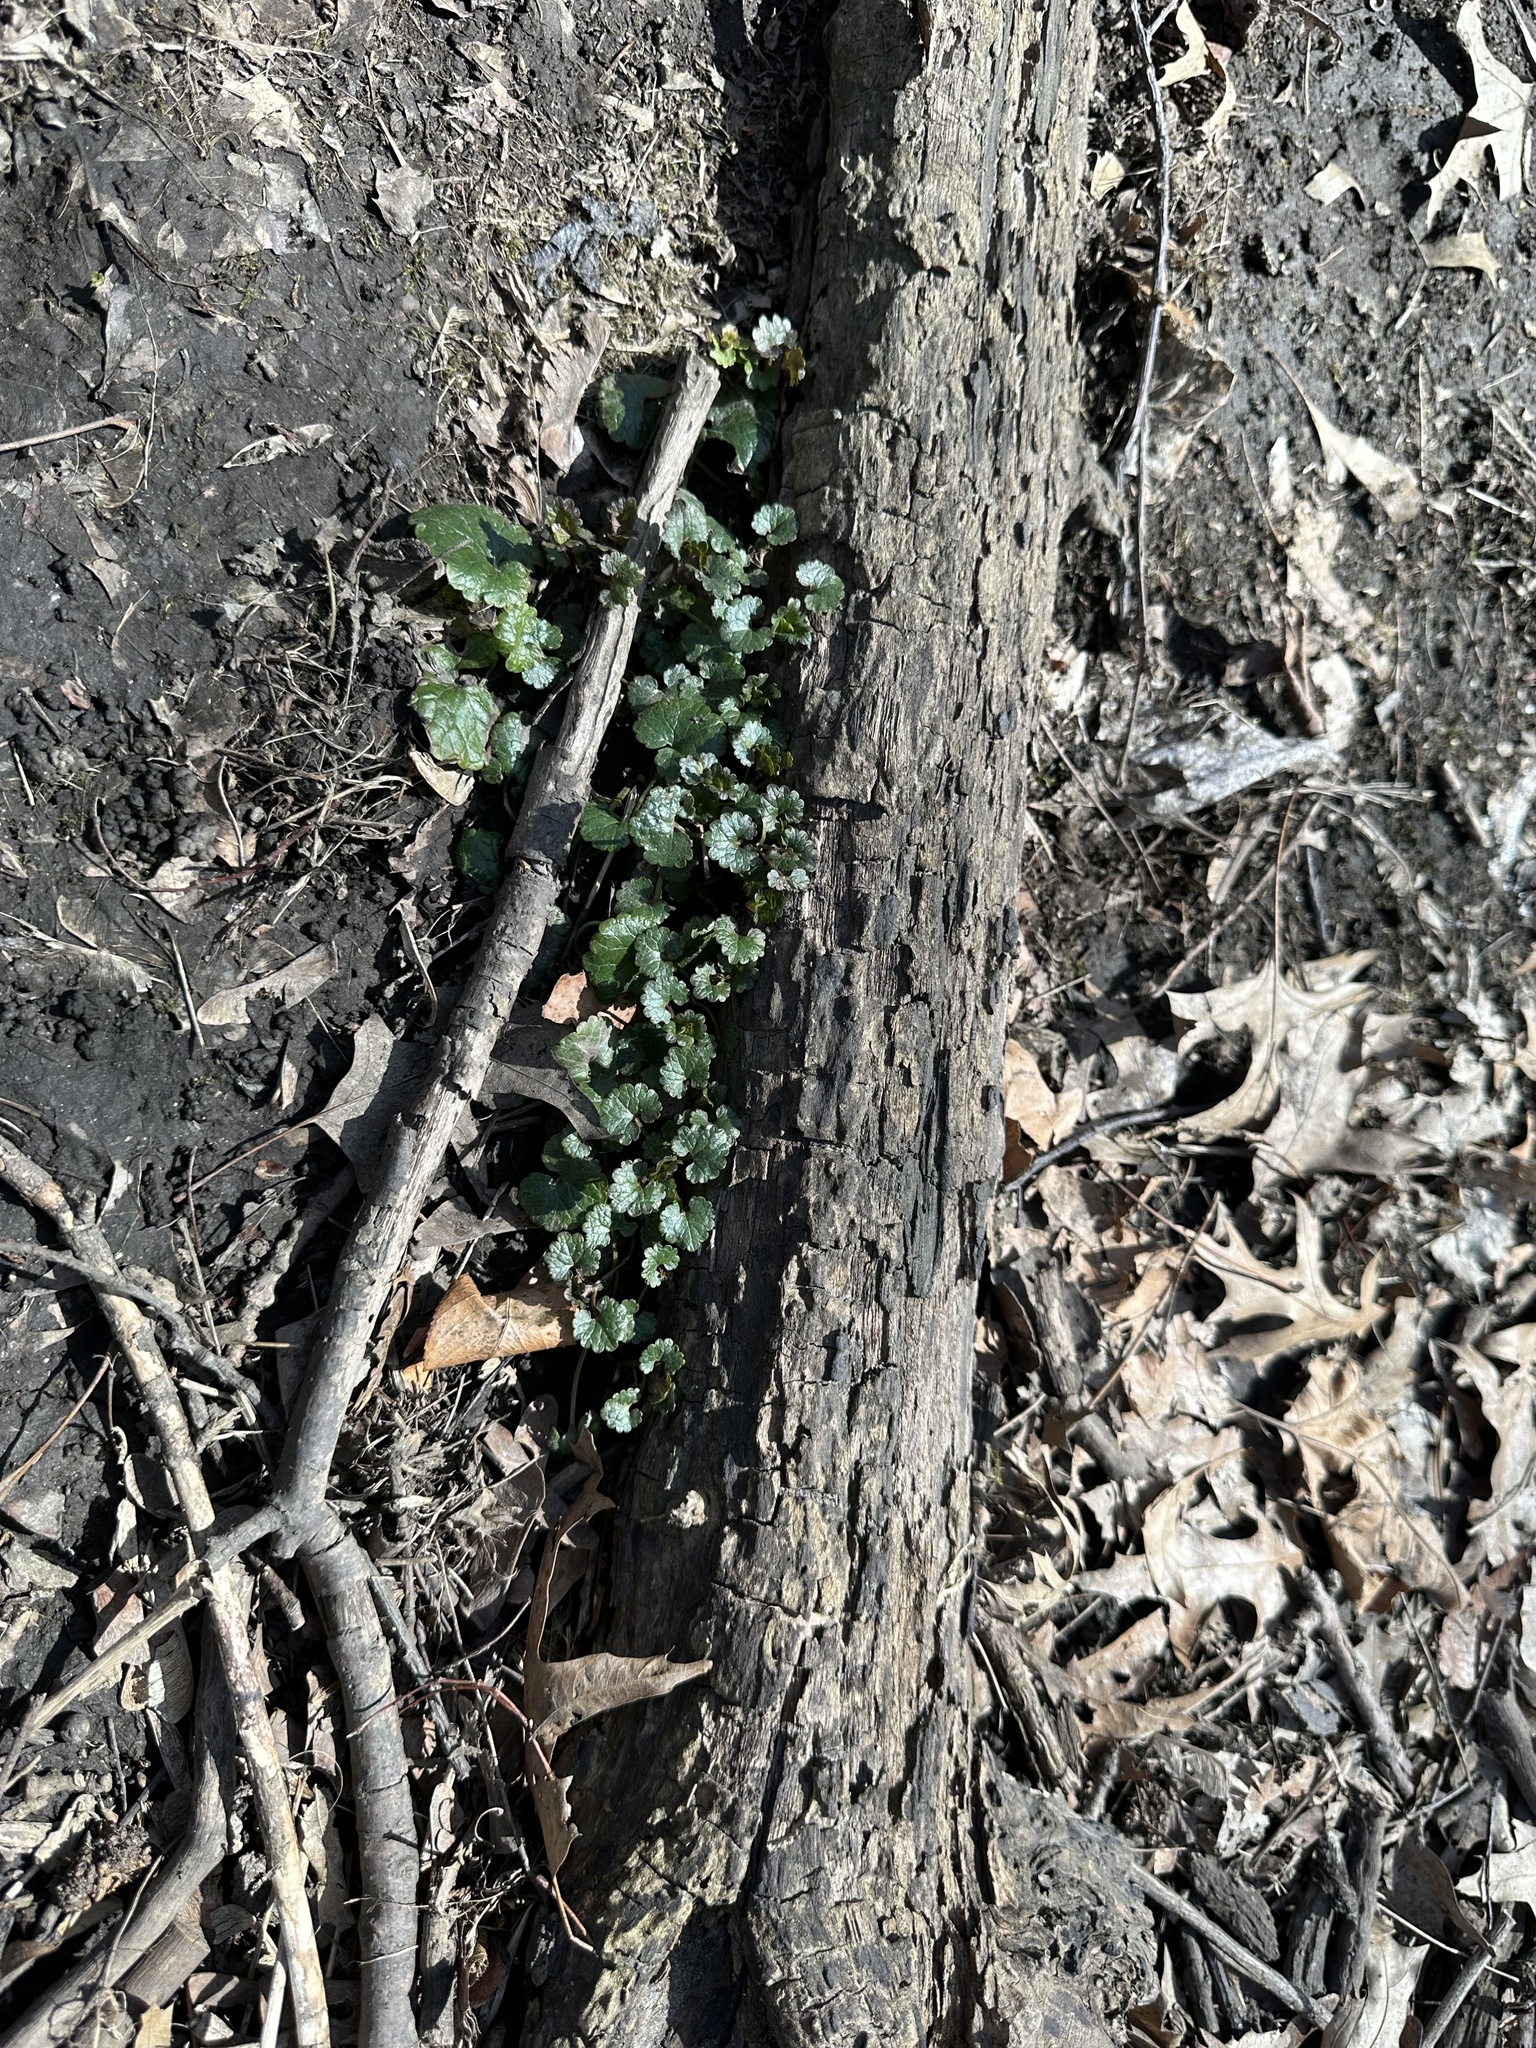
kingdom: Plantae
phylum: Tracheophyta
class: Magnoliopsida
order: Lamiales
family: Lamiaceae
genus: Glechoma
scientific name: Glechoma hederacea
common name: Ground ivy
